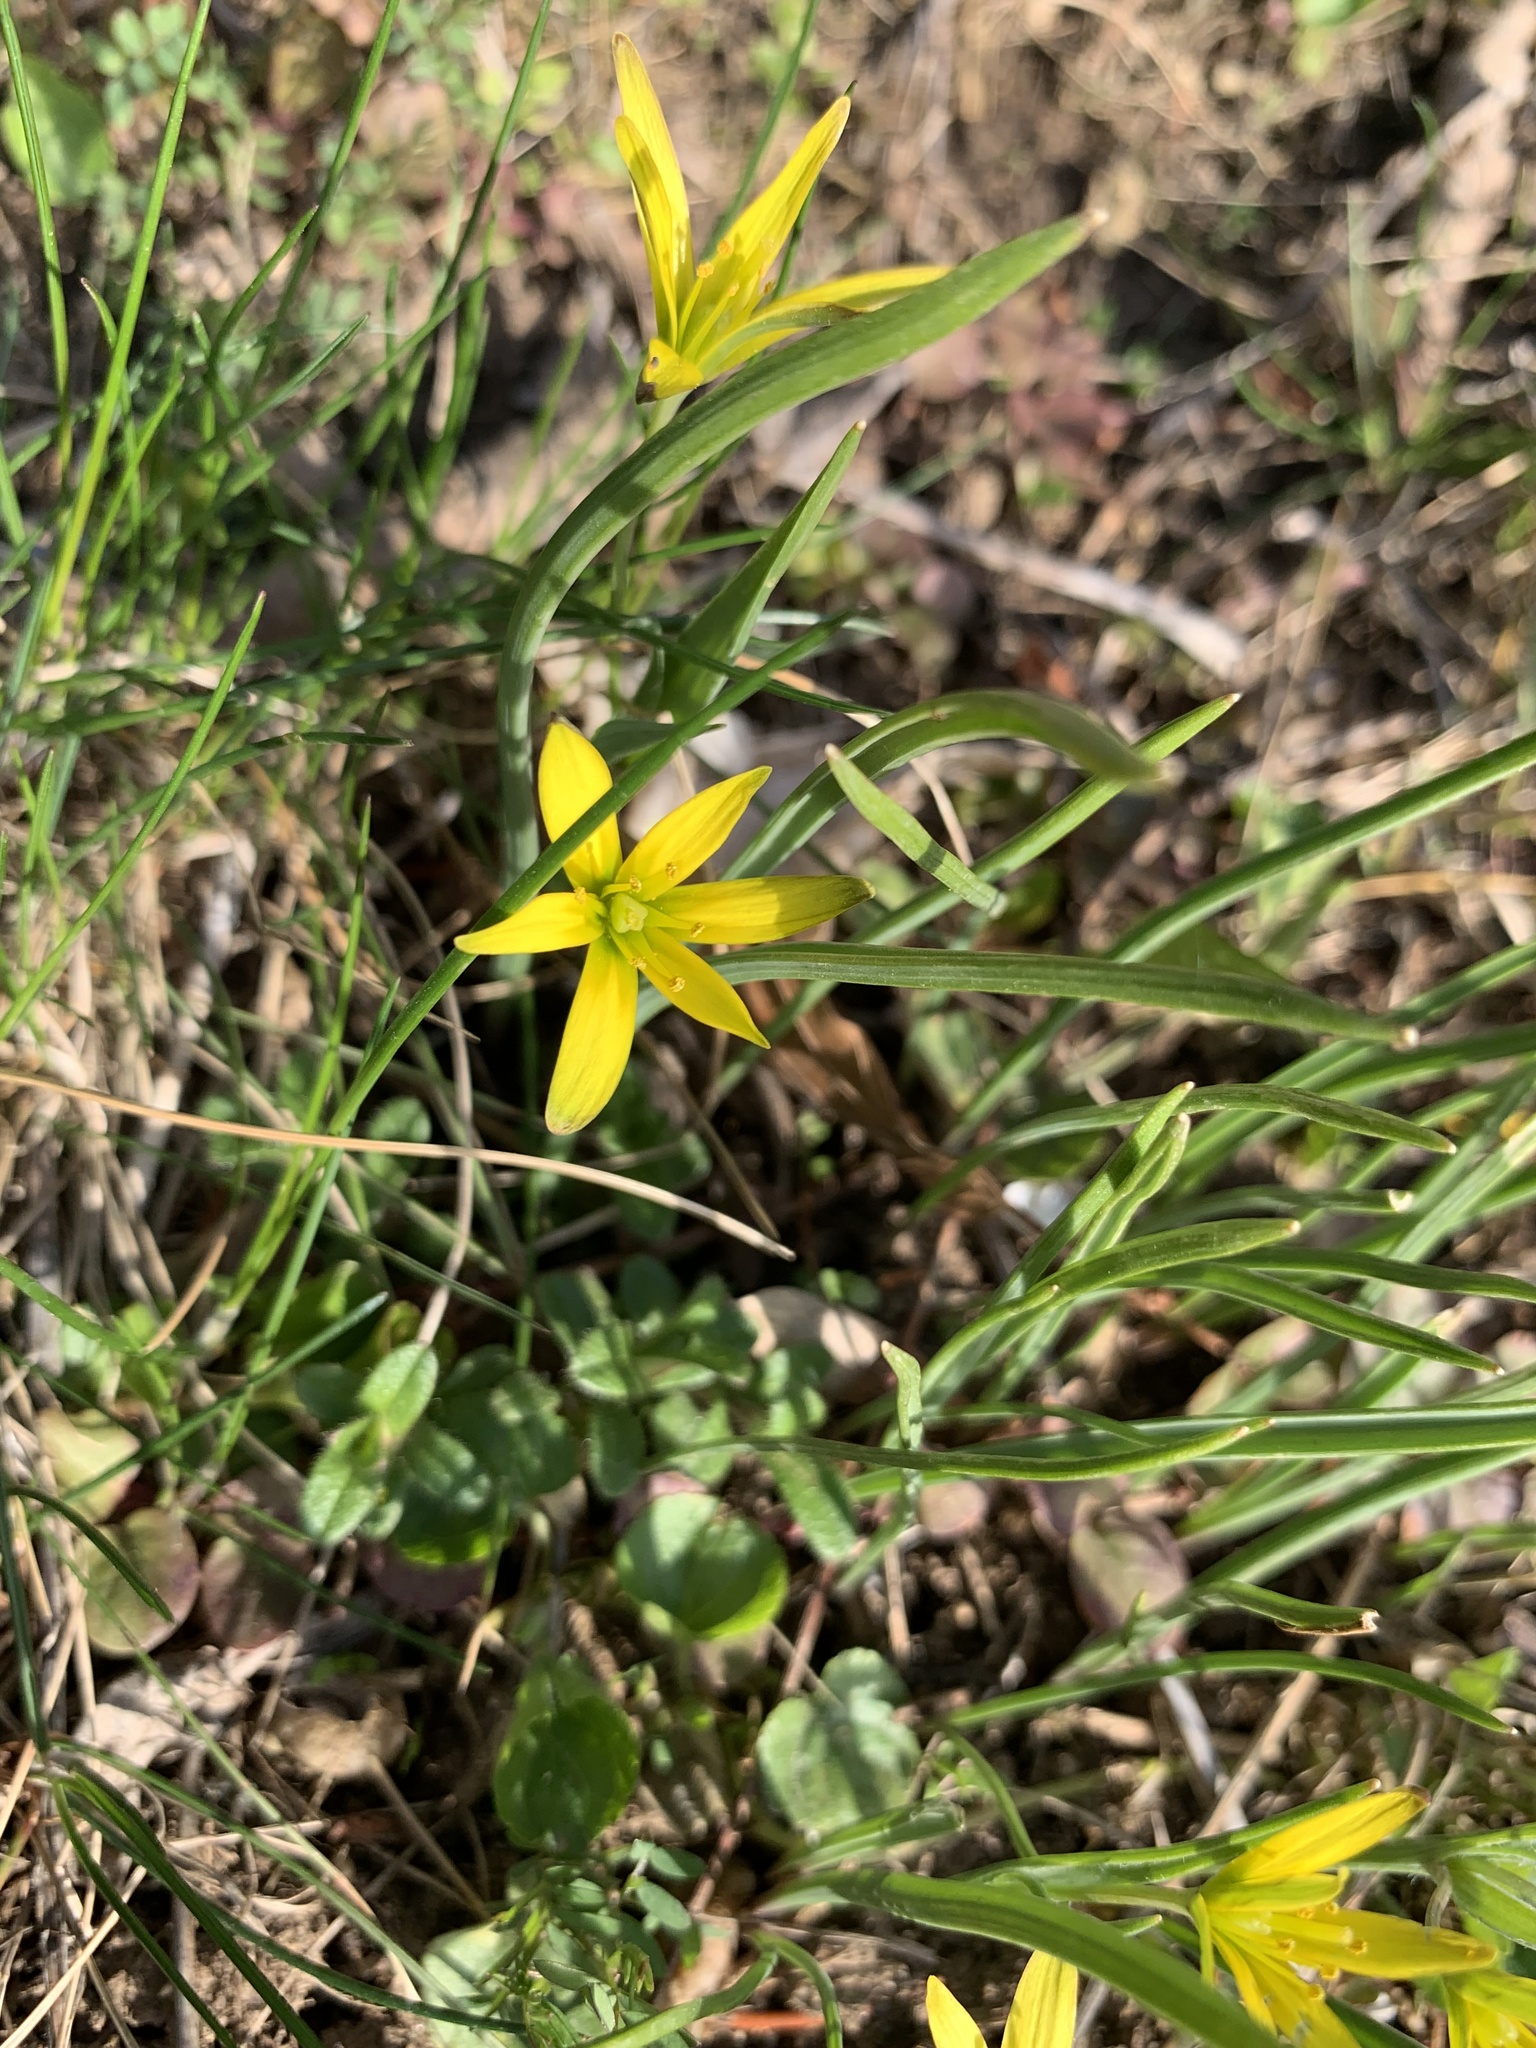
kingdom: Plantae
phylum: Tracheophyta
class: Liliopsida
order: Liliales
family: Liliaceae
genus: Gagea
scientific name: Gagea pratensis
